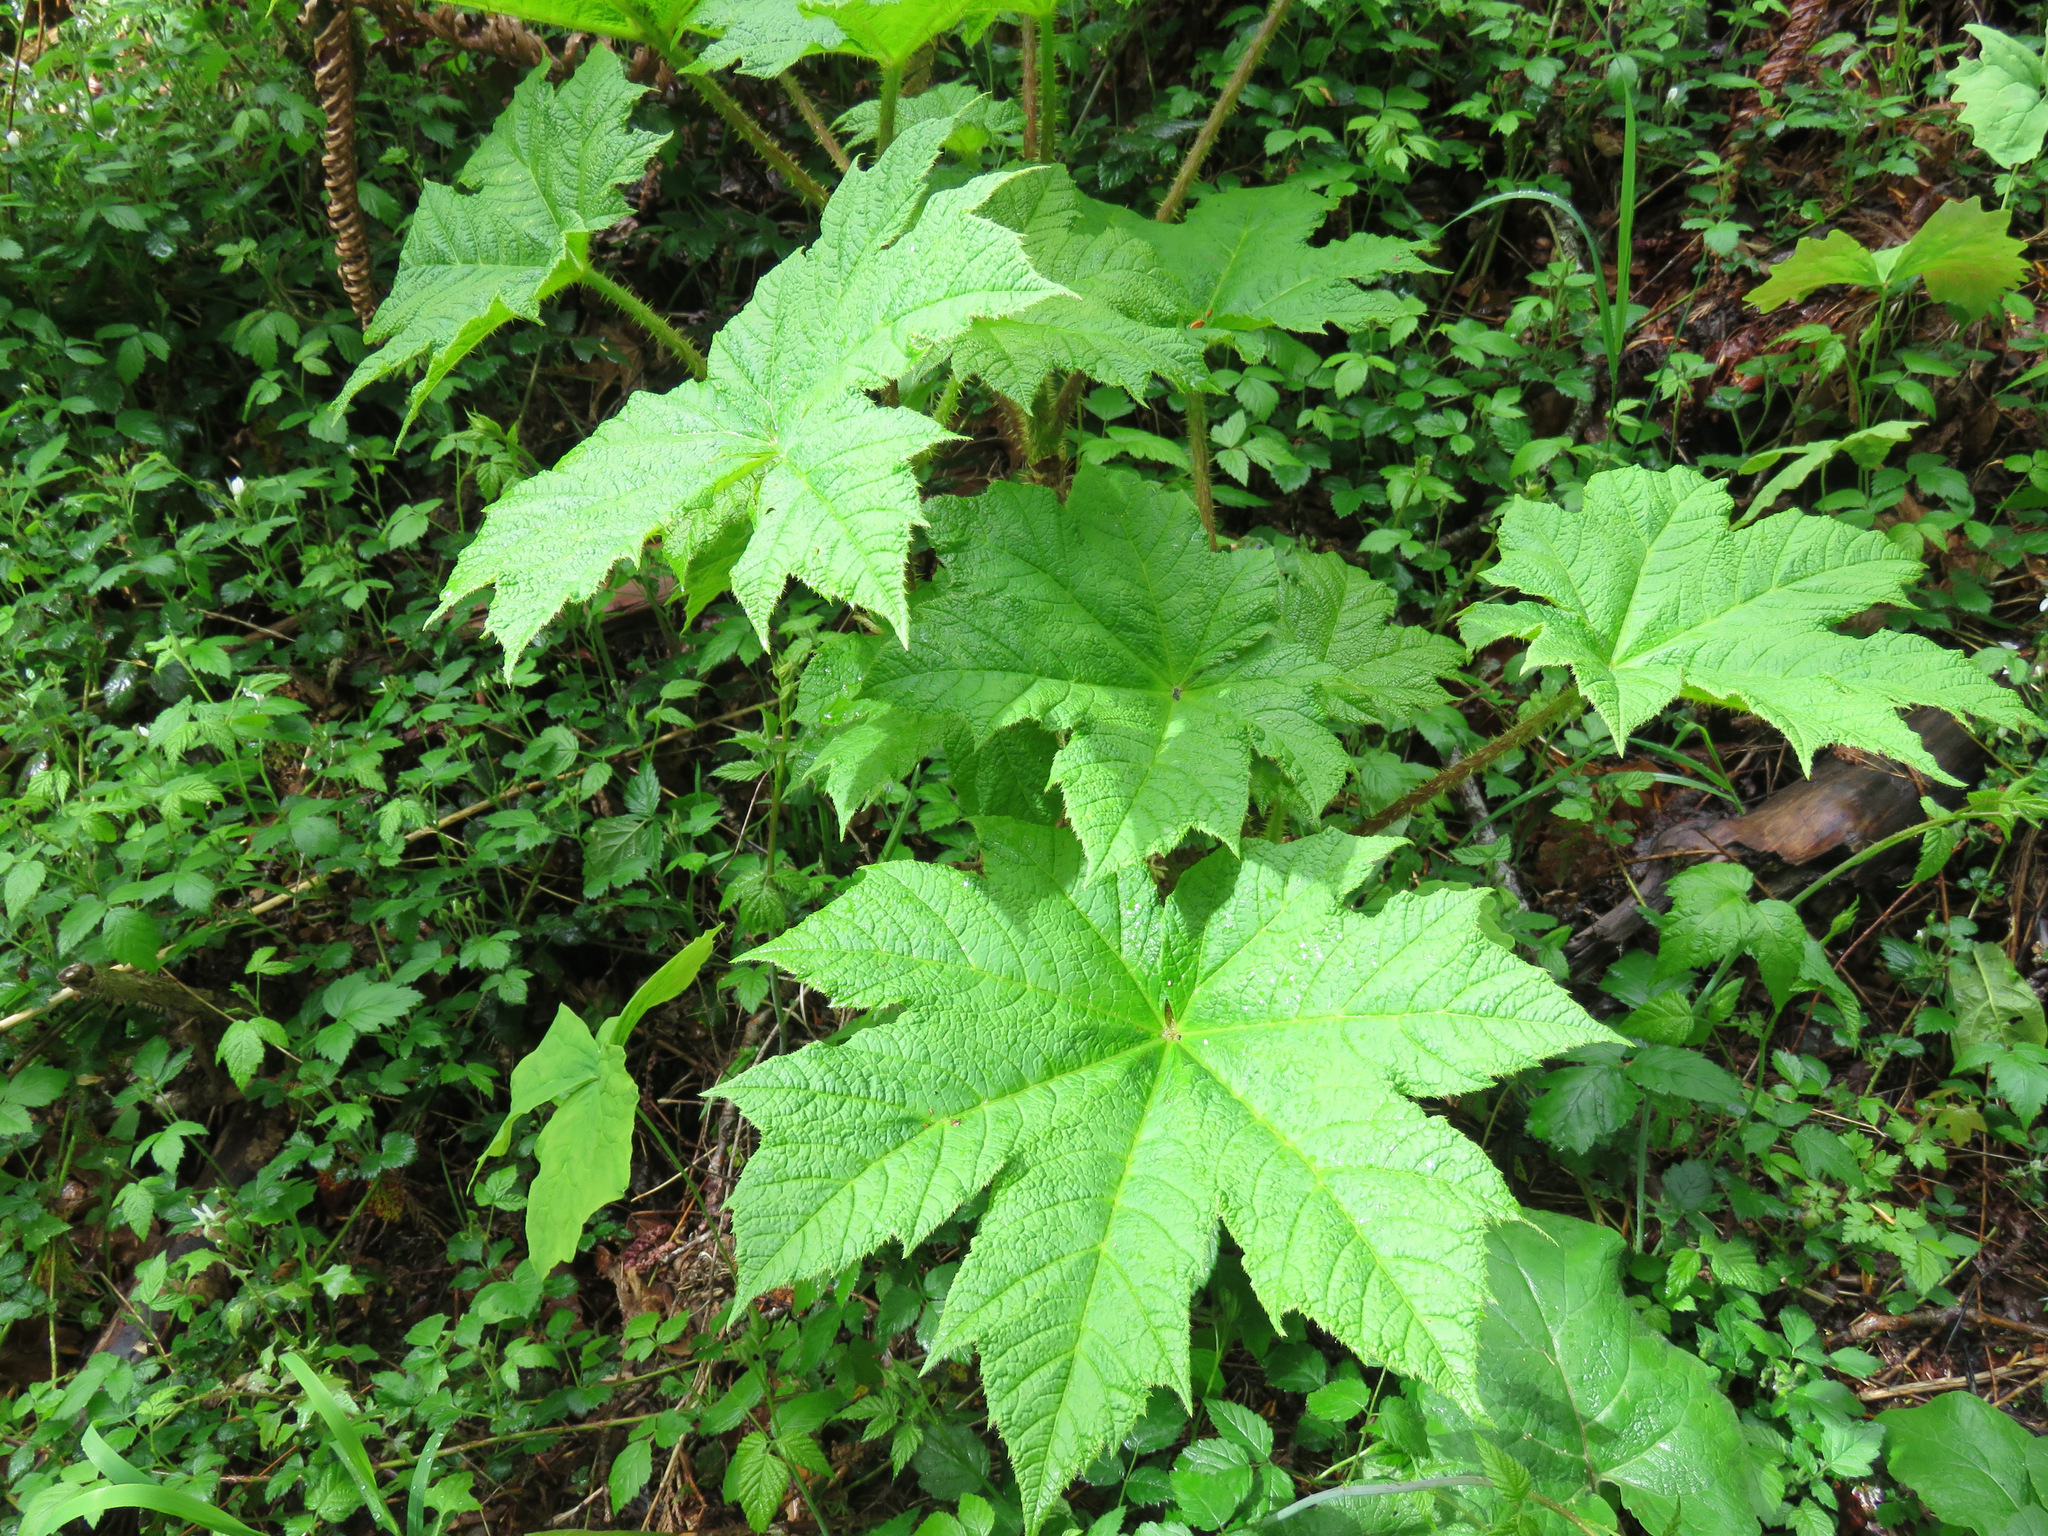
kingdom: Plantae
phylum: Tracheophyta
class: Magnoliopsida
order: Apiales
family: Araliaceae
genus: Oplopanax
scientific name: Oplopanax horridus
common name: Devil's walking-stick
